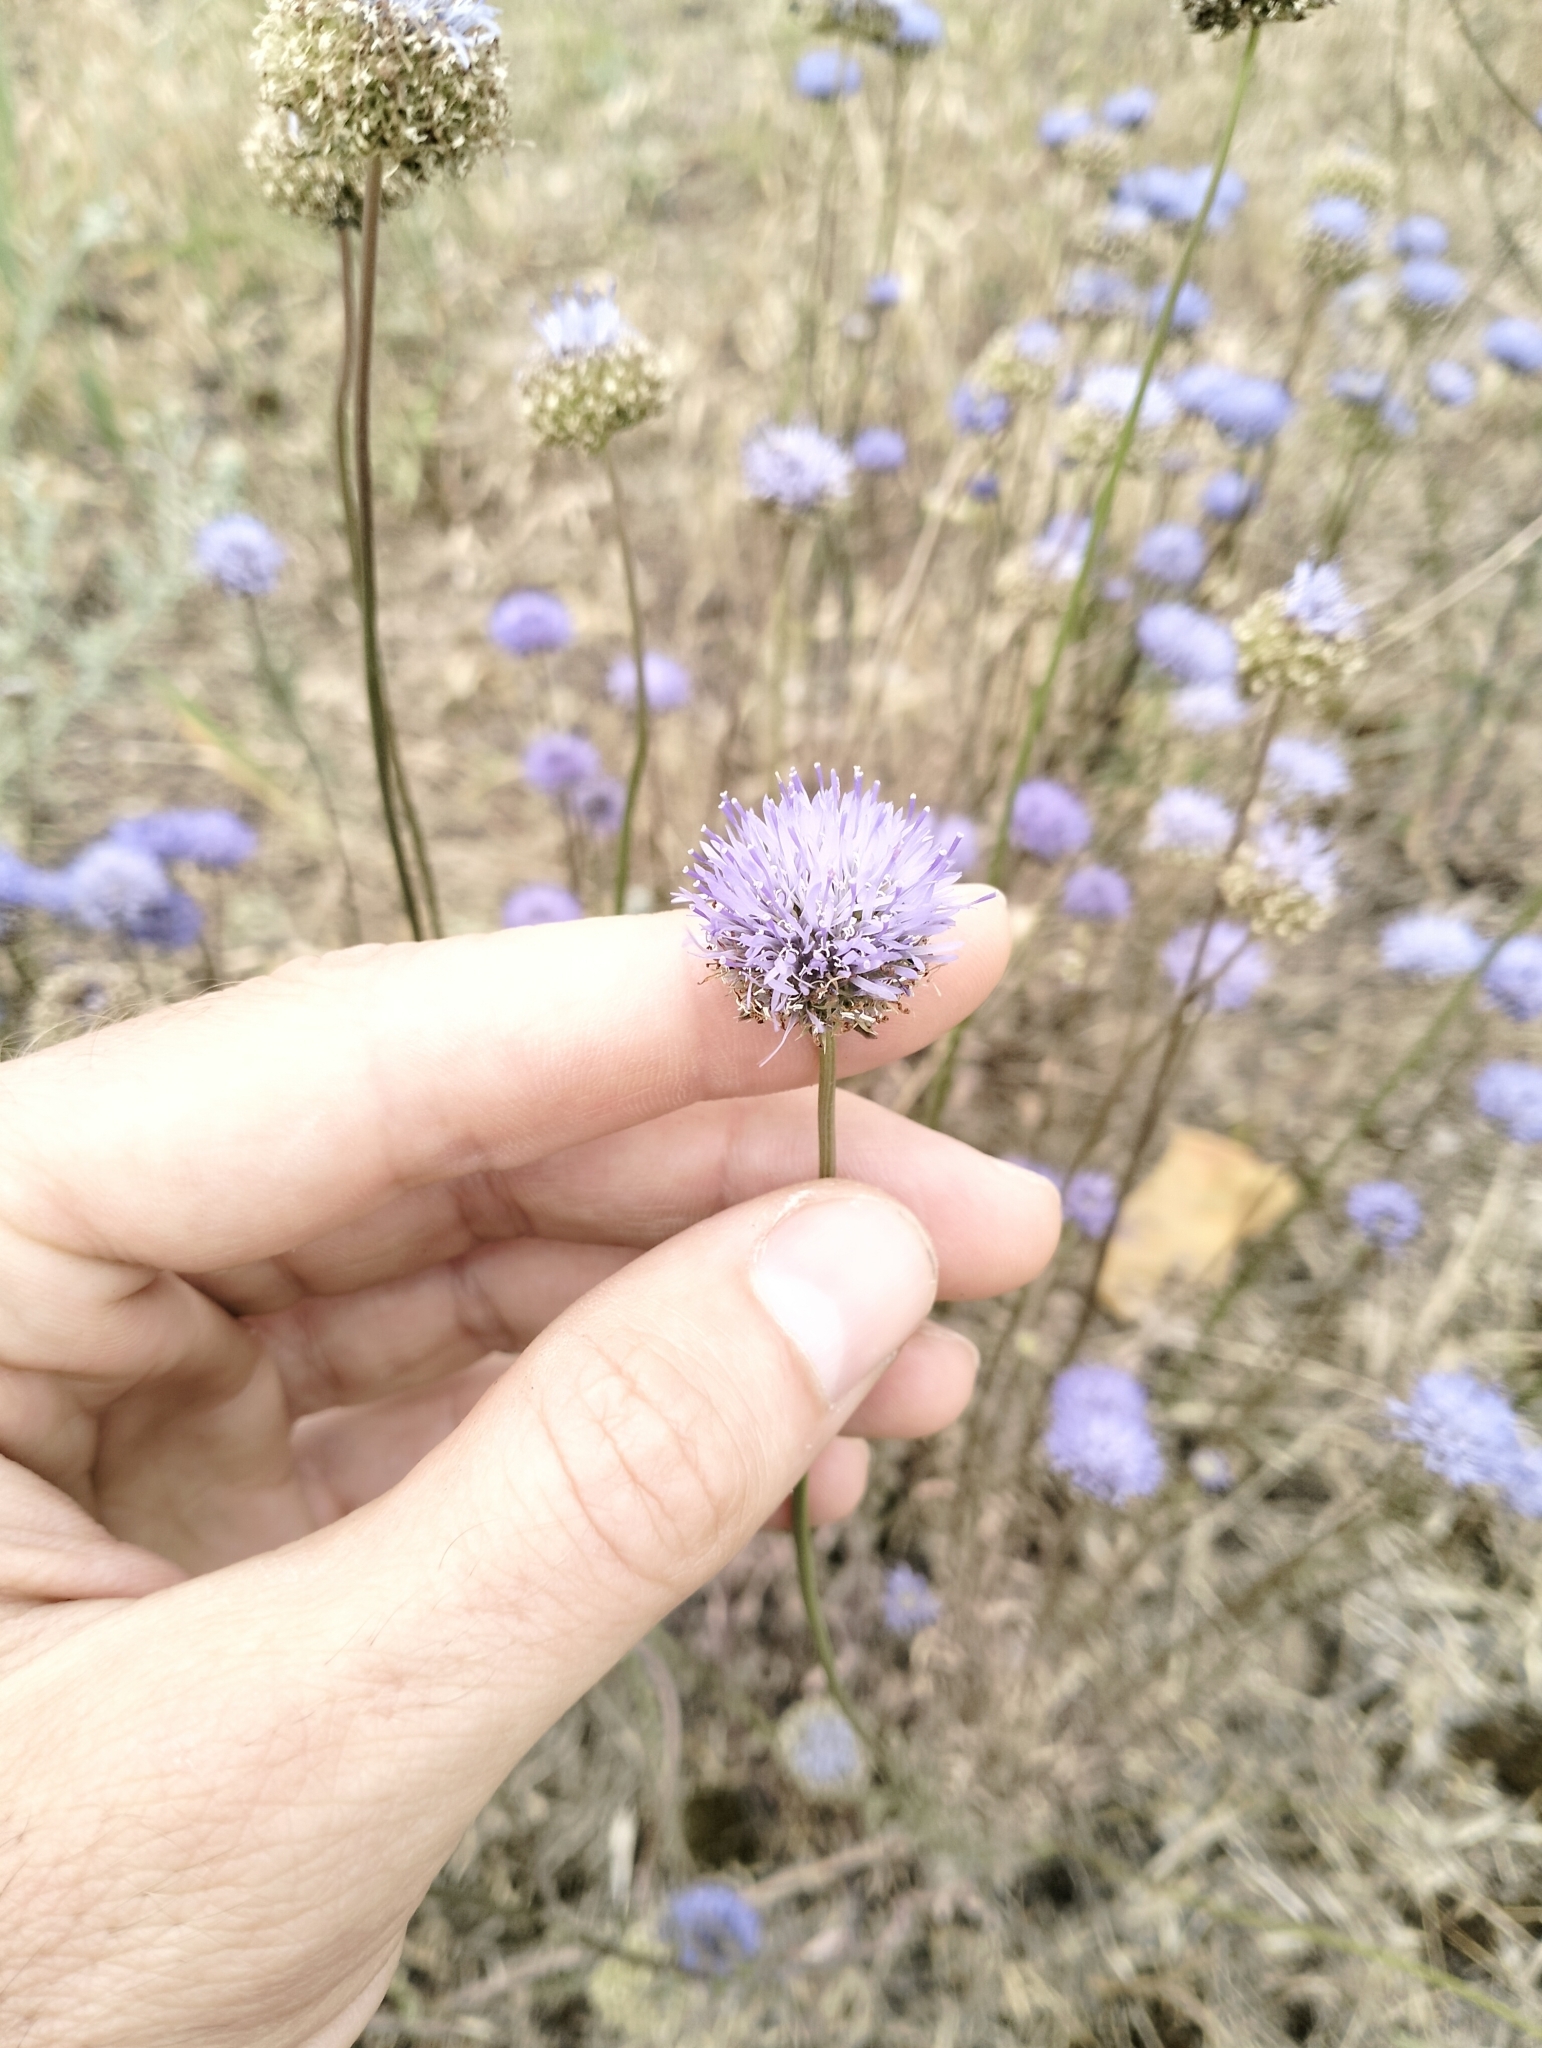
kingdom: Plantae
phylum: Tracheophyta
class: Magnoliopsida
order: Asterales
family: Campanulaceae
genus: Jasione
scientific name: Jasione montana
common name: Sheep's-bit
